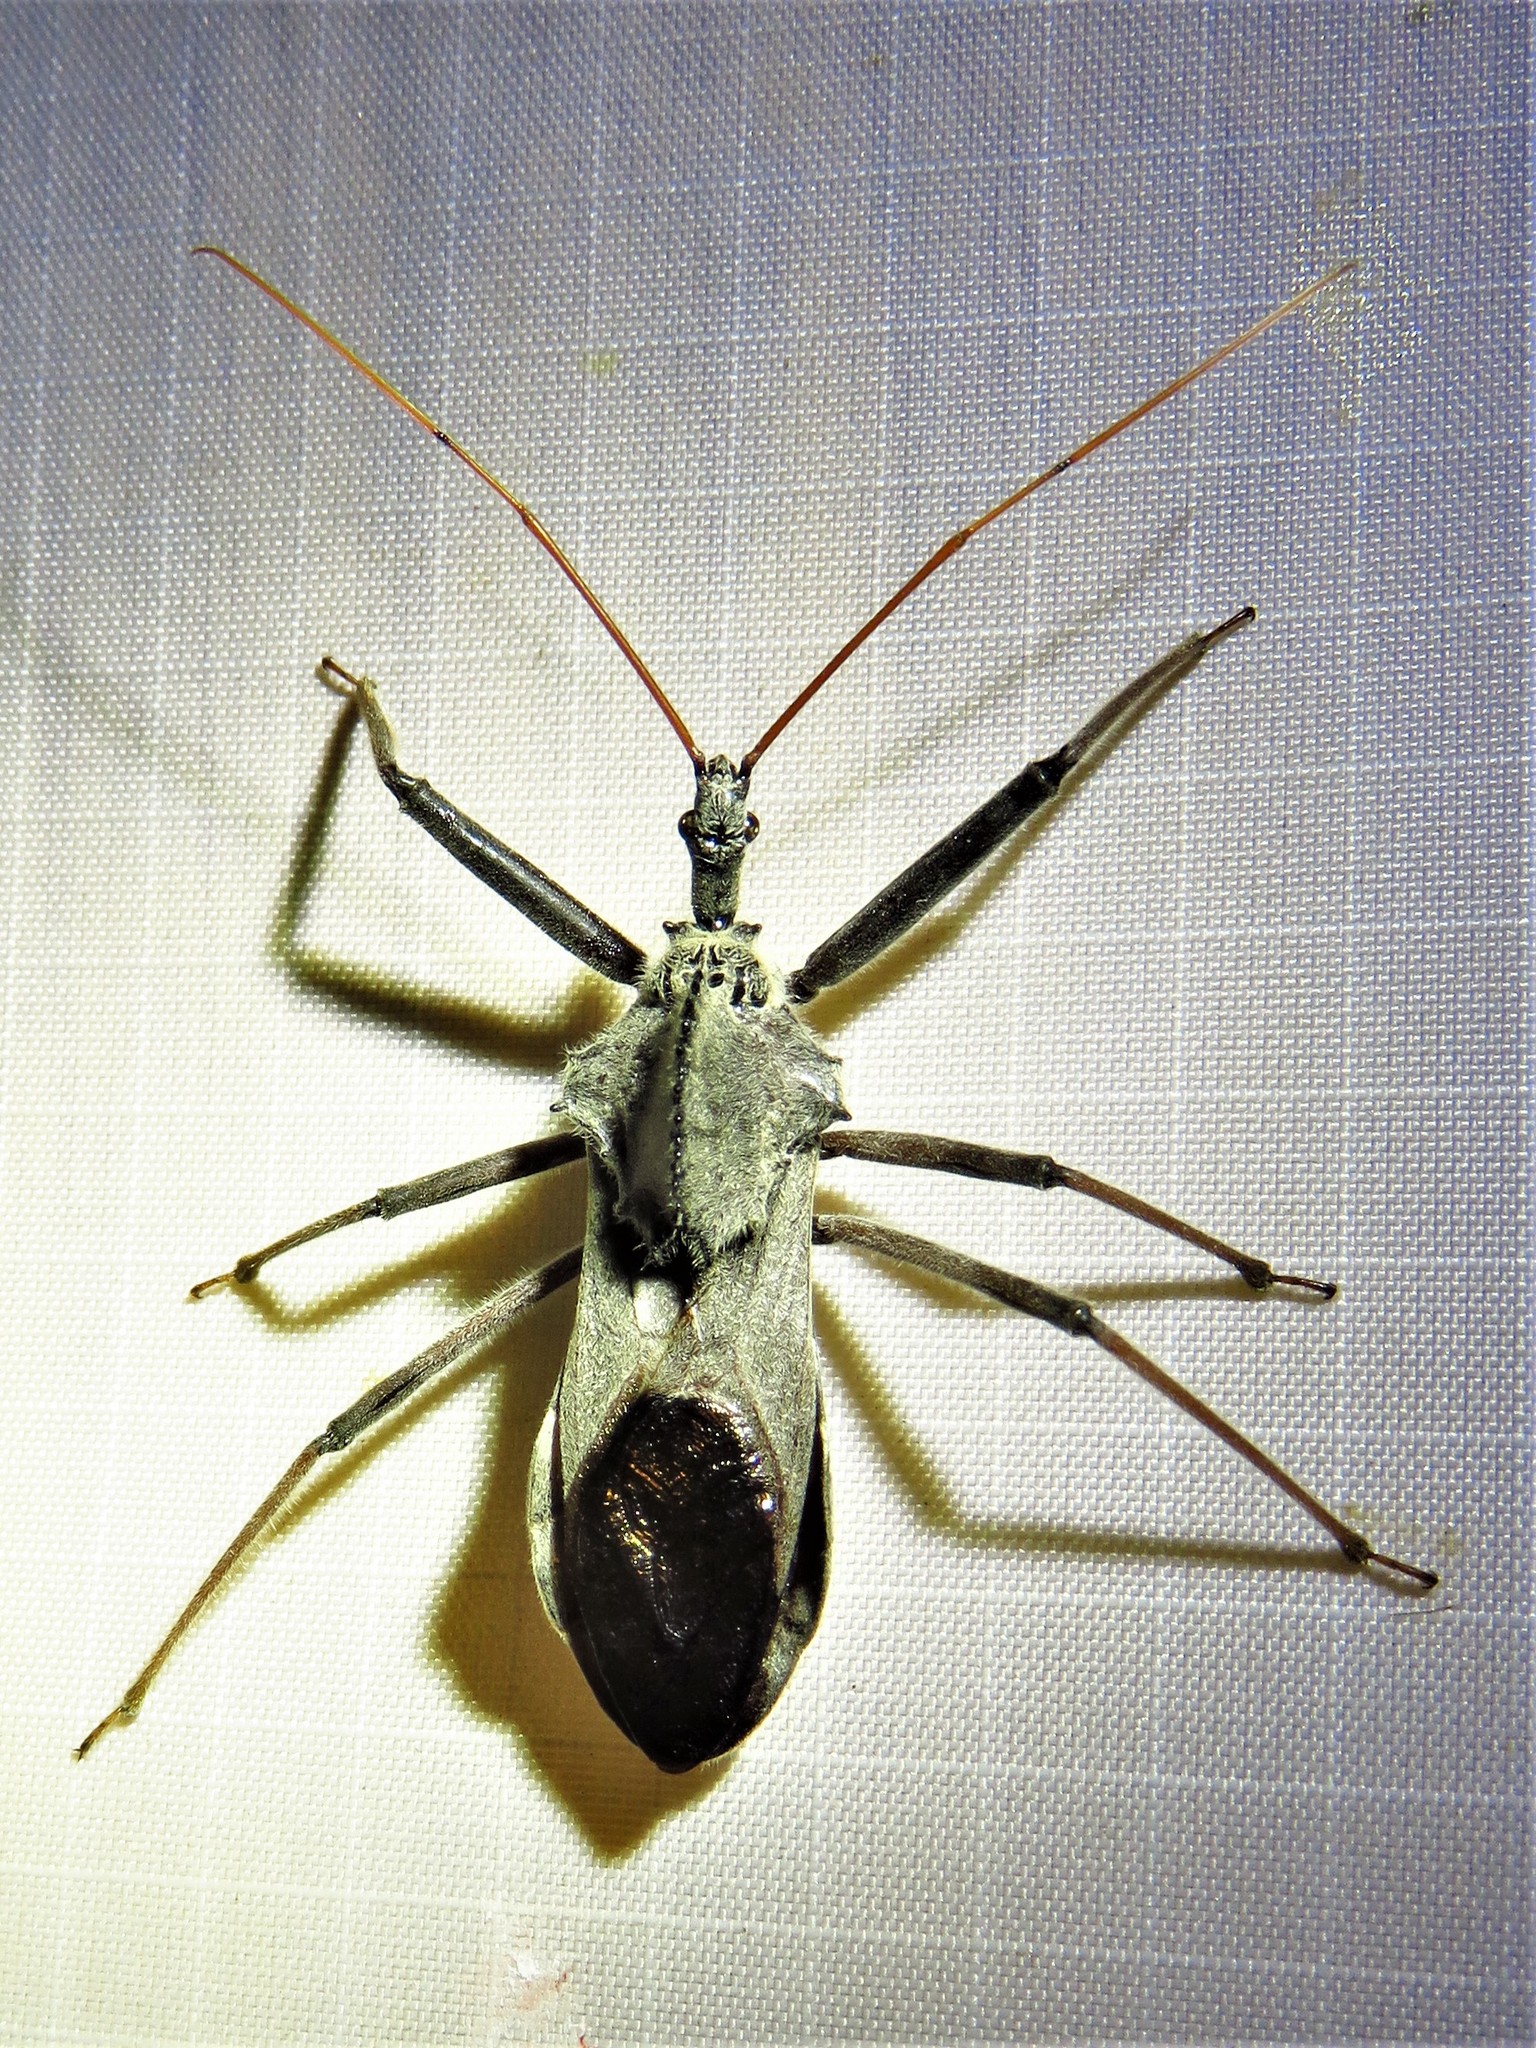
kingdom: Animalia
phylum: Arthropoda
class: Insecta
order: Hemiptera
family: Reduviidae
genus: Arilus
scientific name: Arilus cristatus
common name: North american wheel bug
